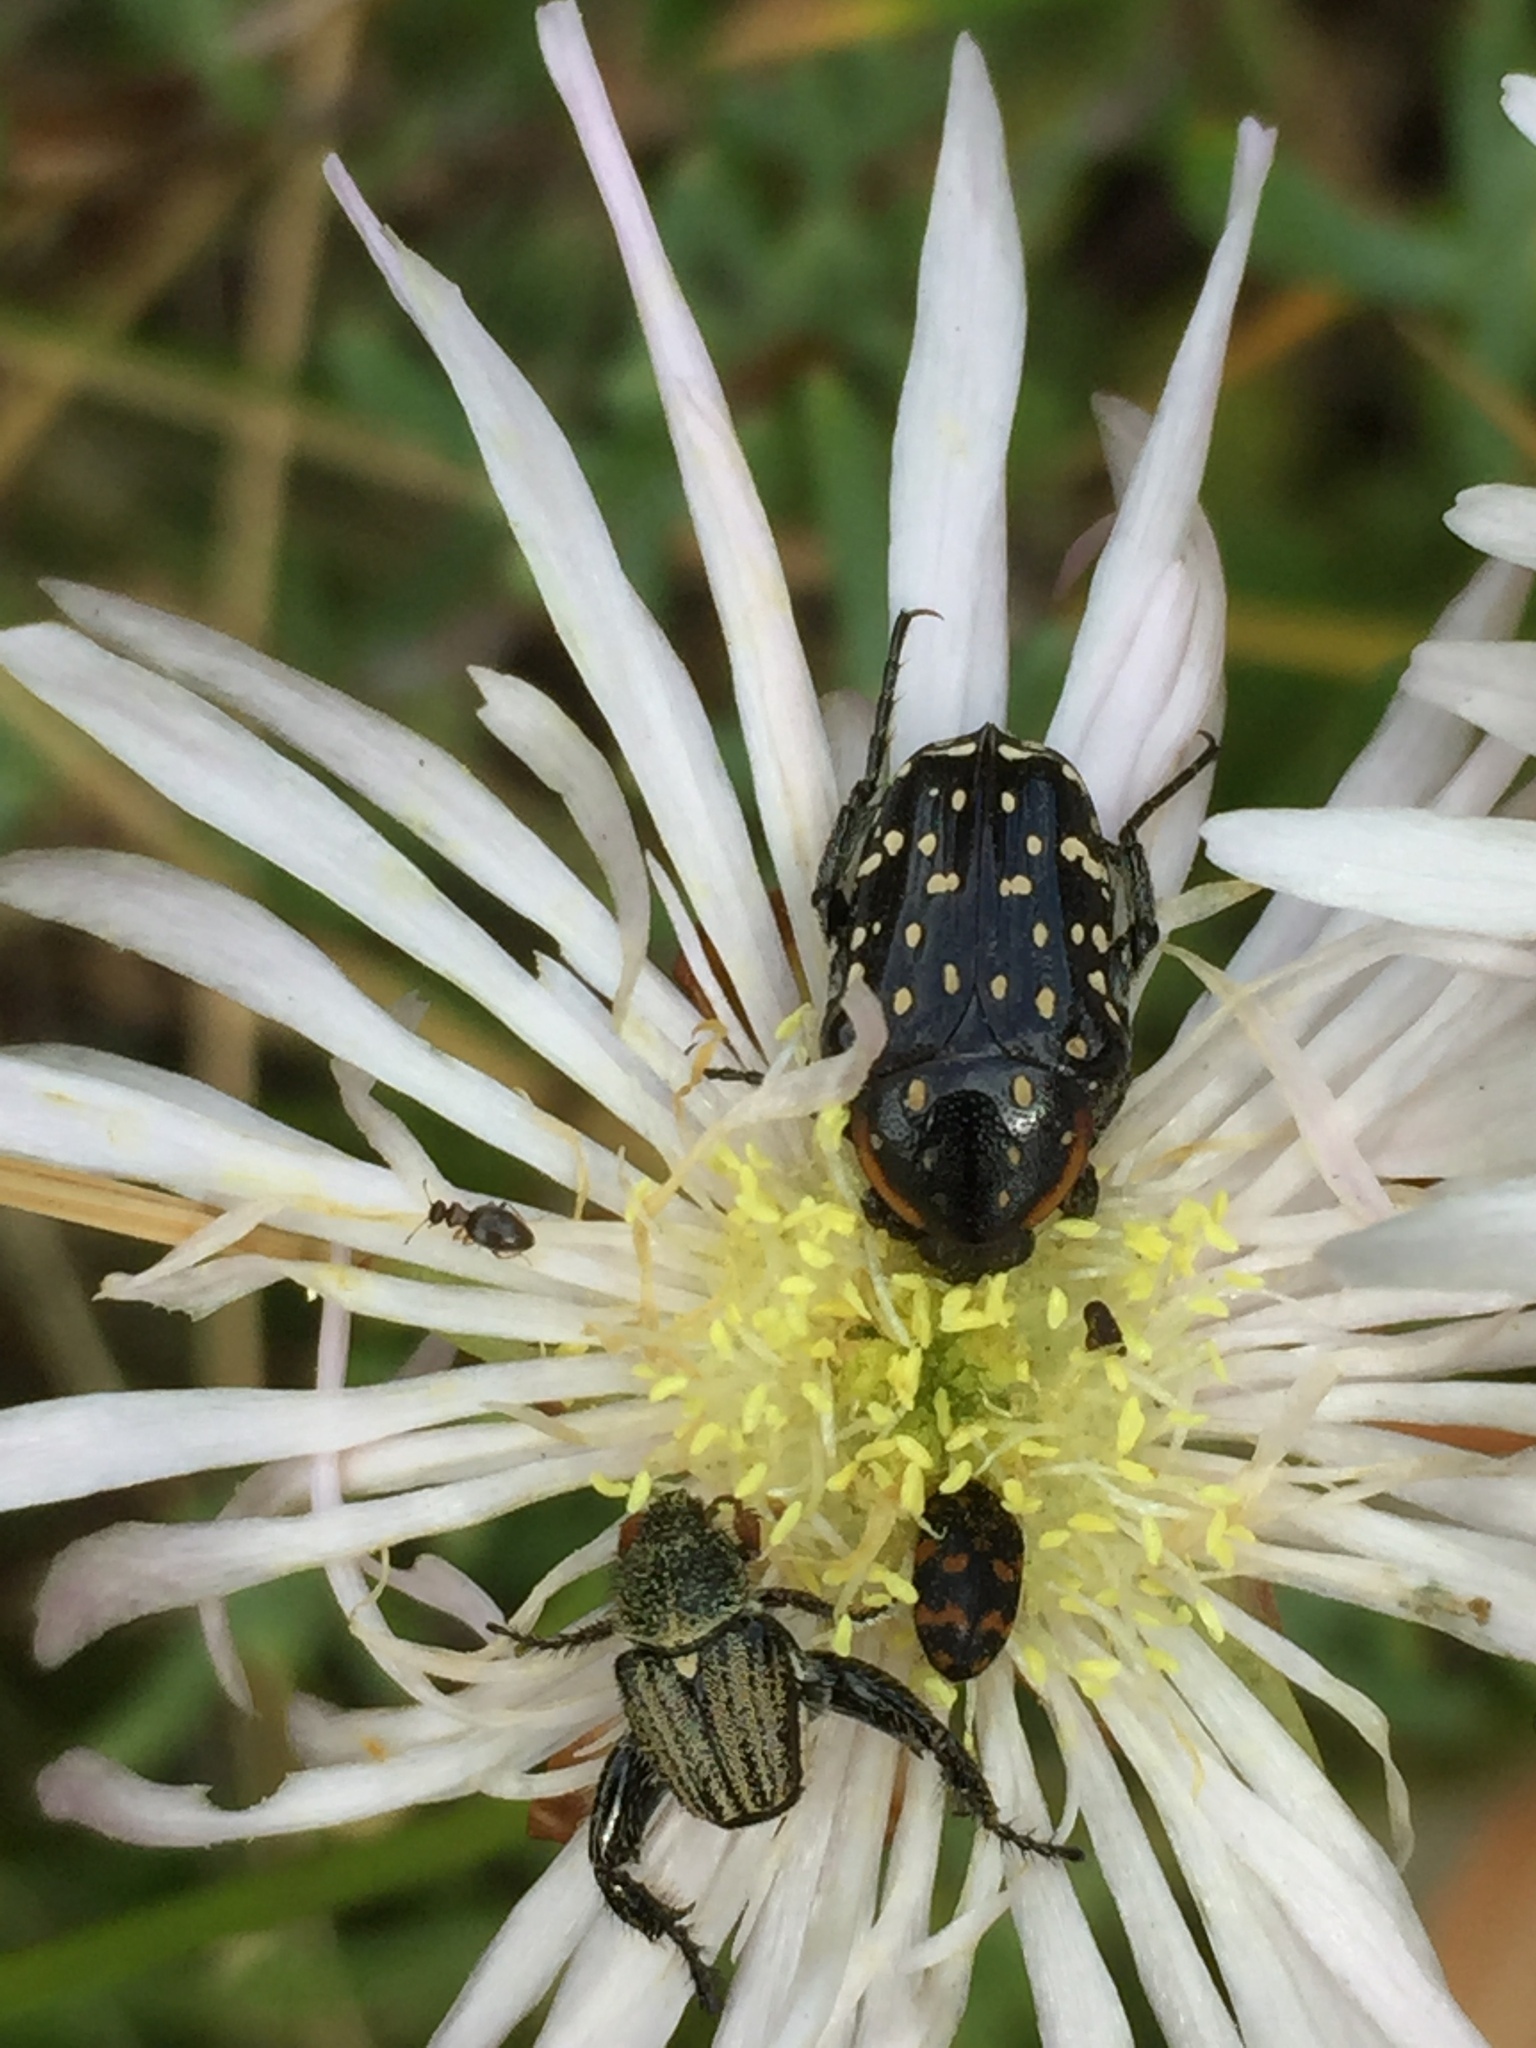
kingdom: Animalia
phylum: Arthropoda
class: Insecta
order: Coleoptera
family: Dermestidae
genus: Attagenus
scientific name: Attagenus
